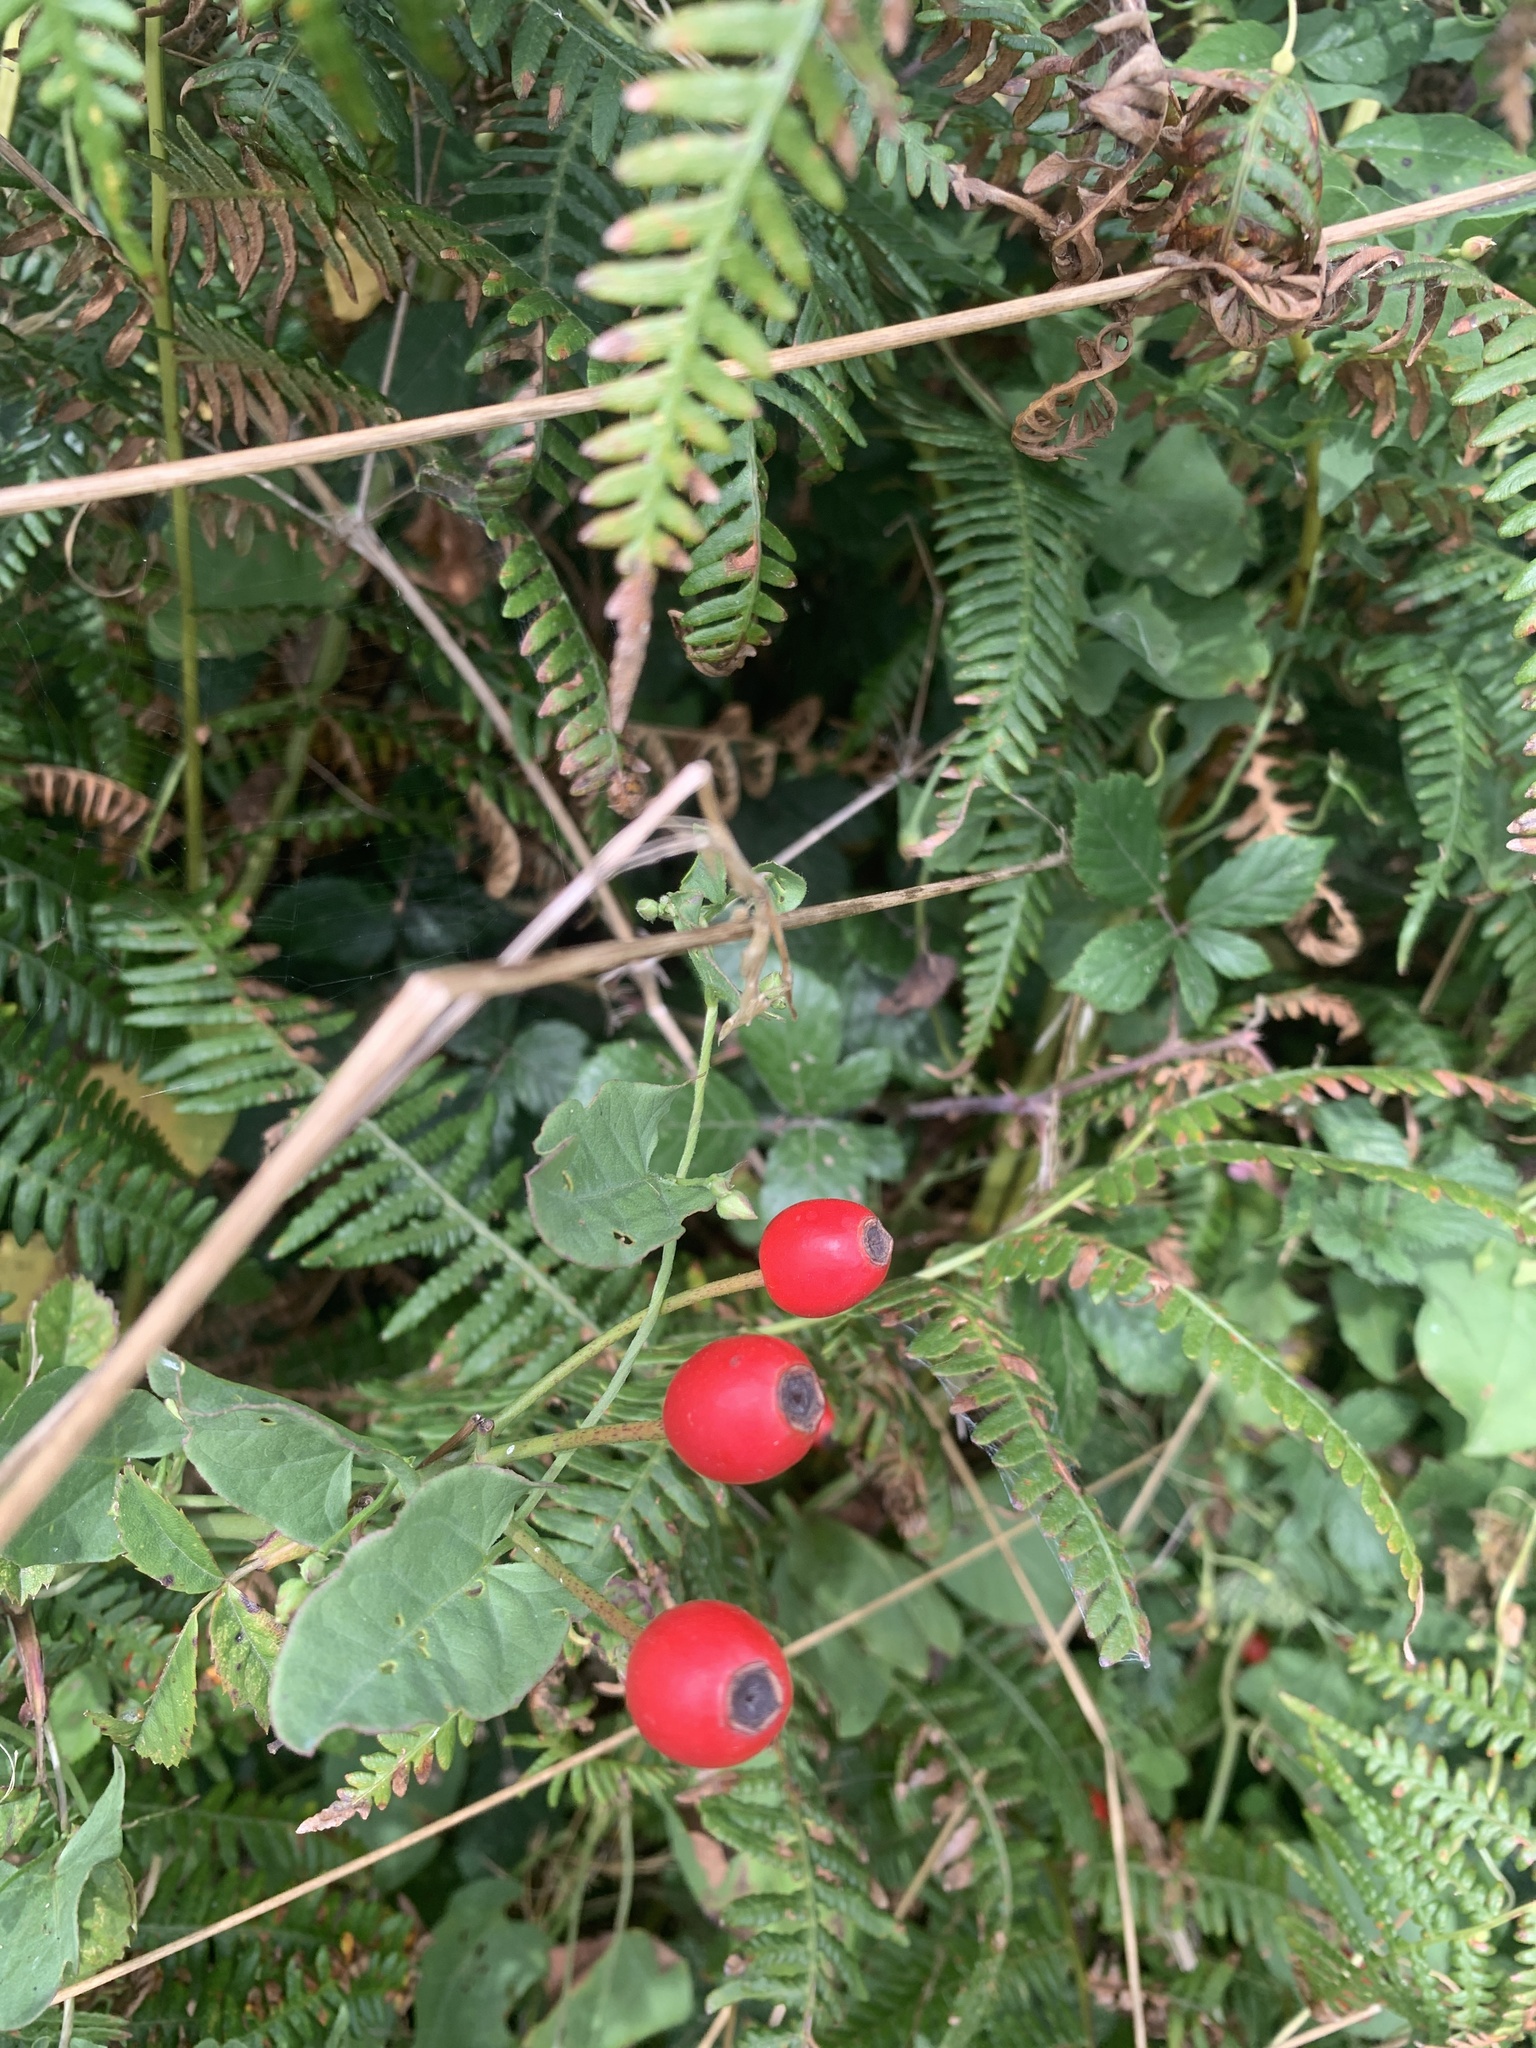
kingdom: Plantae
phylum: Tracheophyta
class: Magnoliopsida
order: Rosales
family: Rosaceae
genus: Rosa
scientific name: Rosa canina
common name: Dog rose
